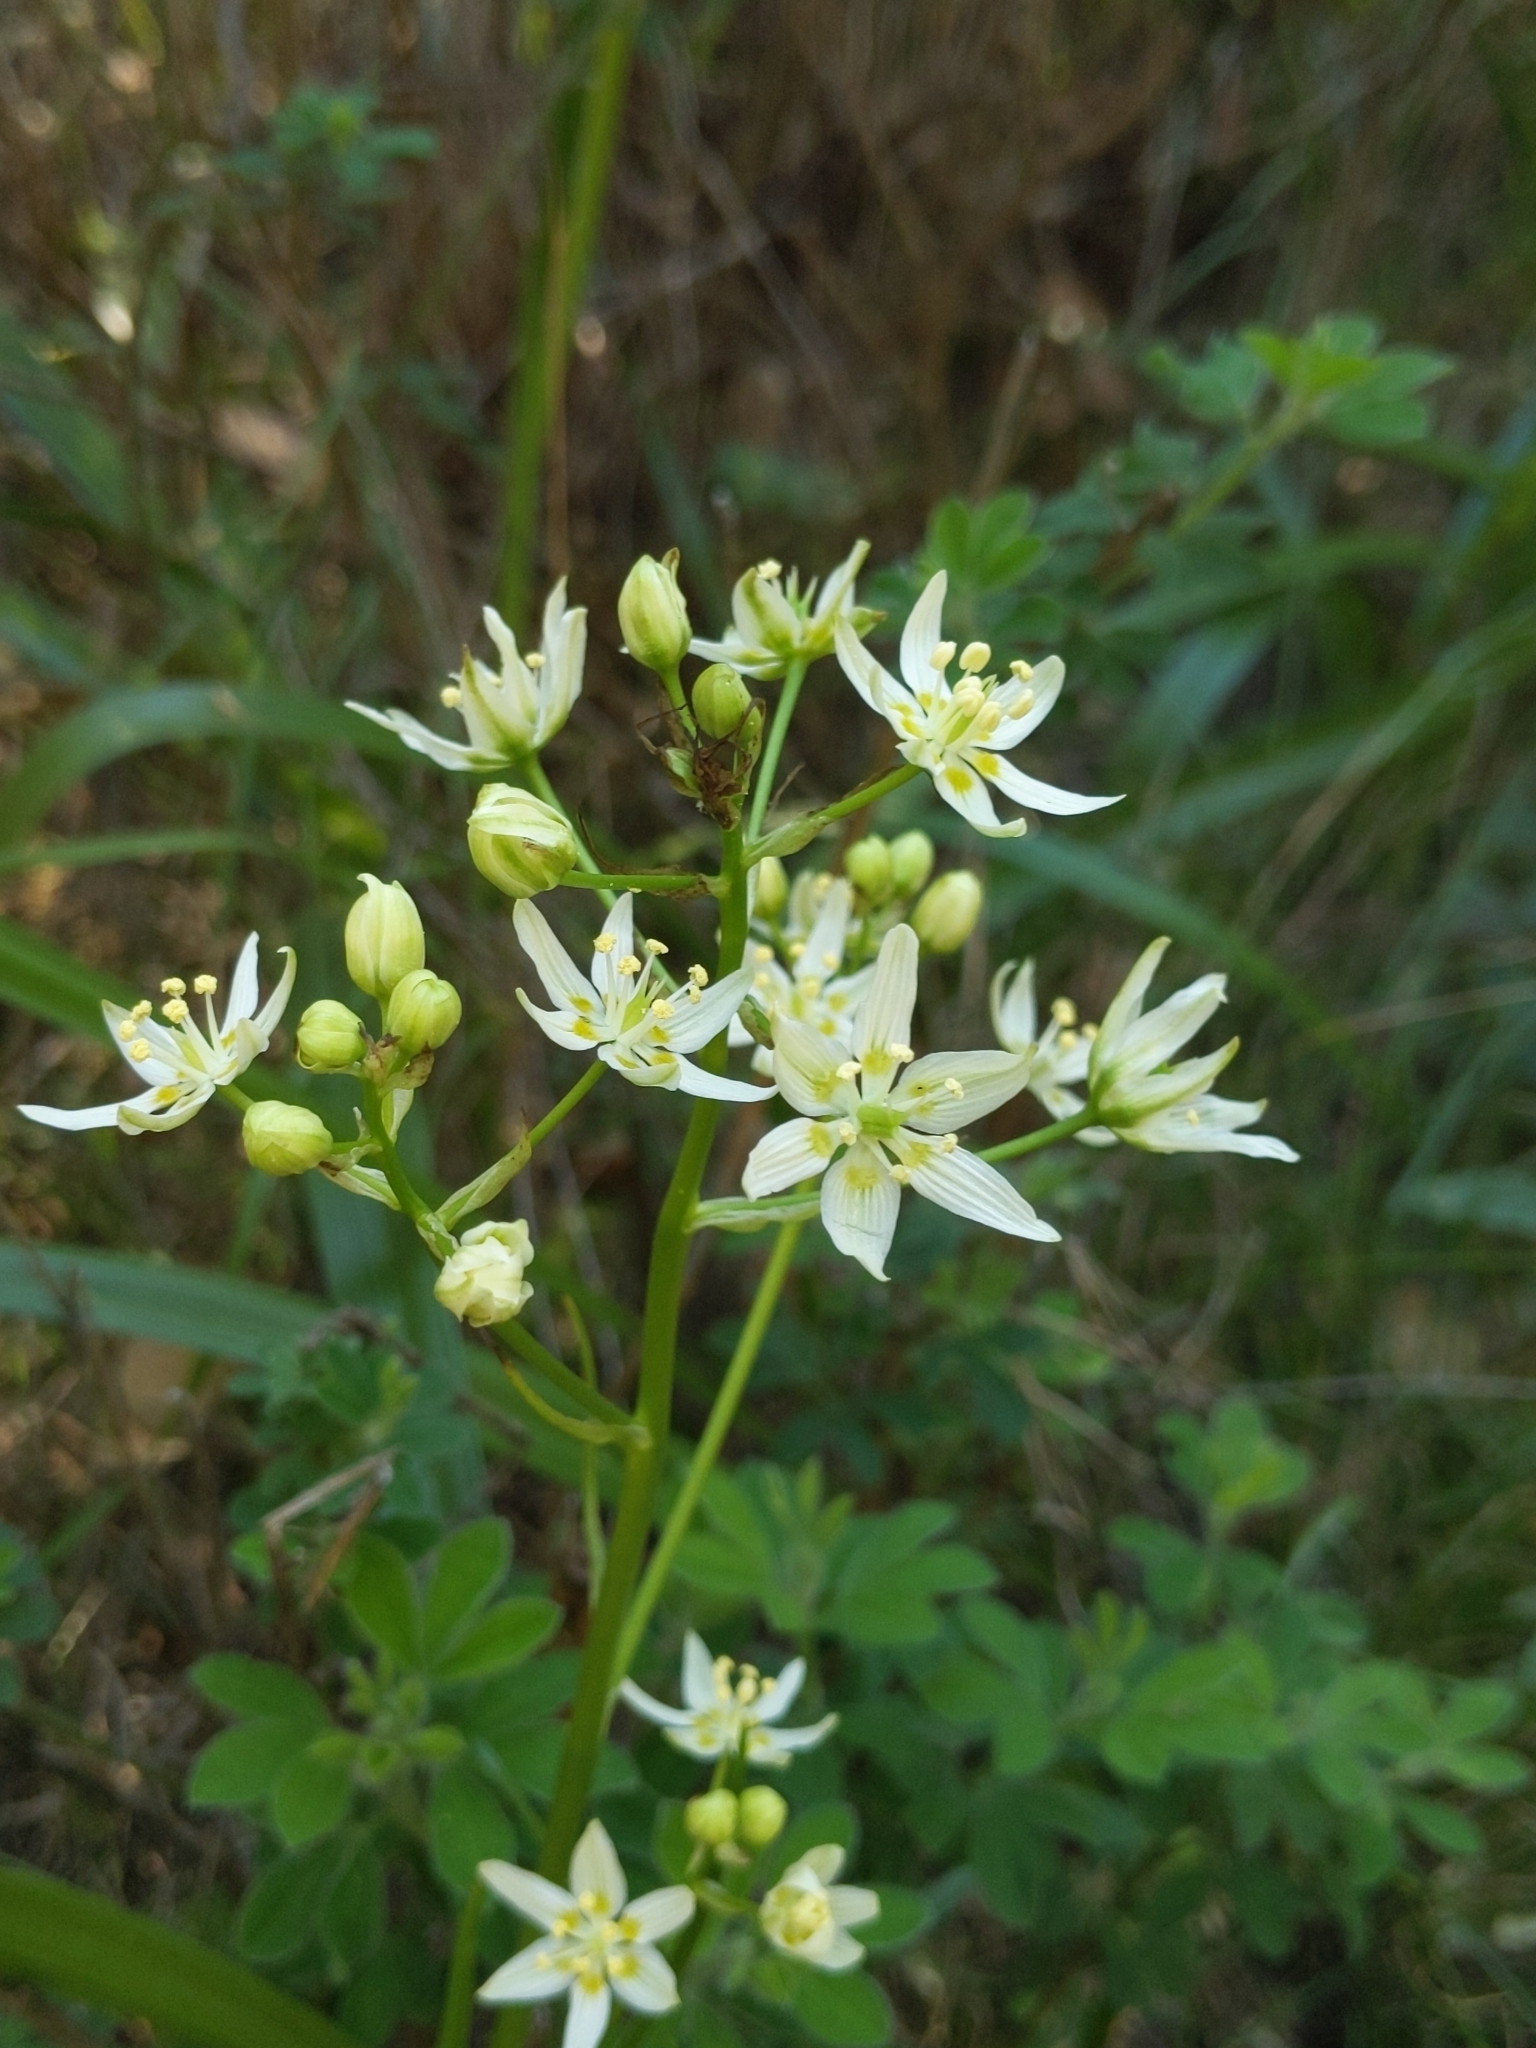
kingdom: Plantae
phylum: Tracheophyta
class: Liliopsida
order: Liliales
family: Melanthiaceae
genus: Toxicoscordion
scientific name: Toxicoscordion fremontii
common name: Fremont's death camas
